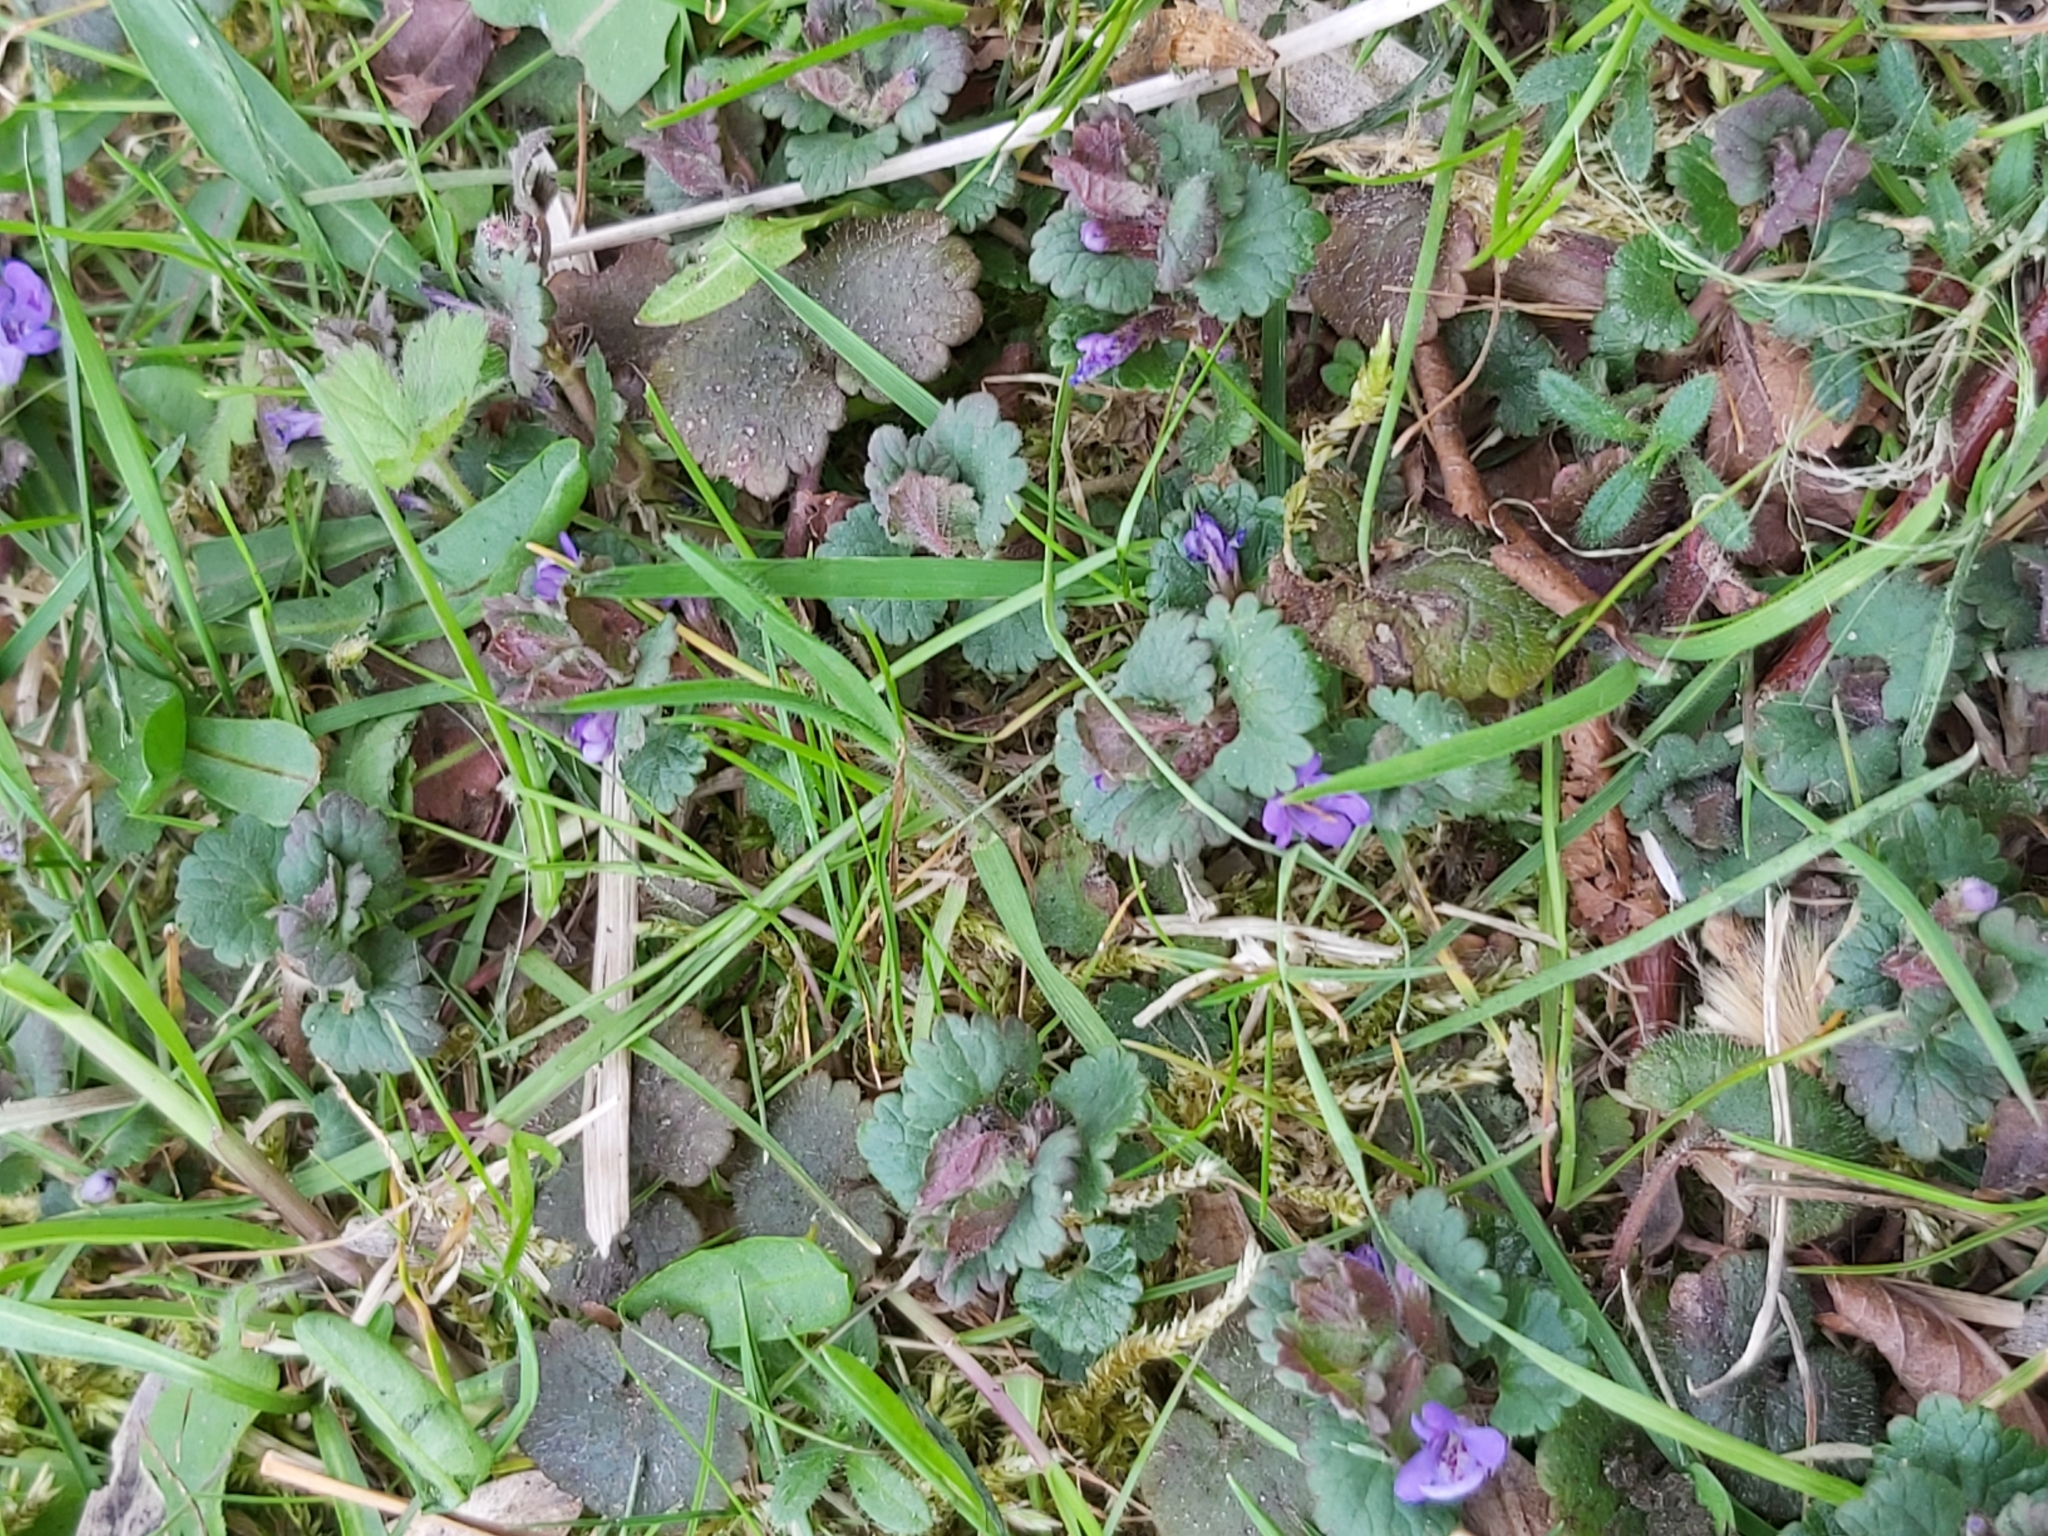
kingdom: Plantae
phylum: Tracheophyta
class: Magnoliopsida
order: Lamiales
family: Lamiaceae
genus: Glechoma
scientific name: Glechoma hederacea
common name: Ground ivy
